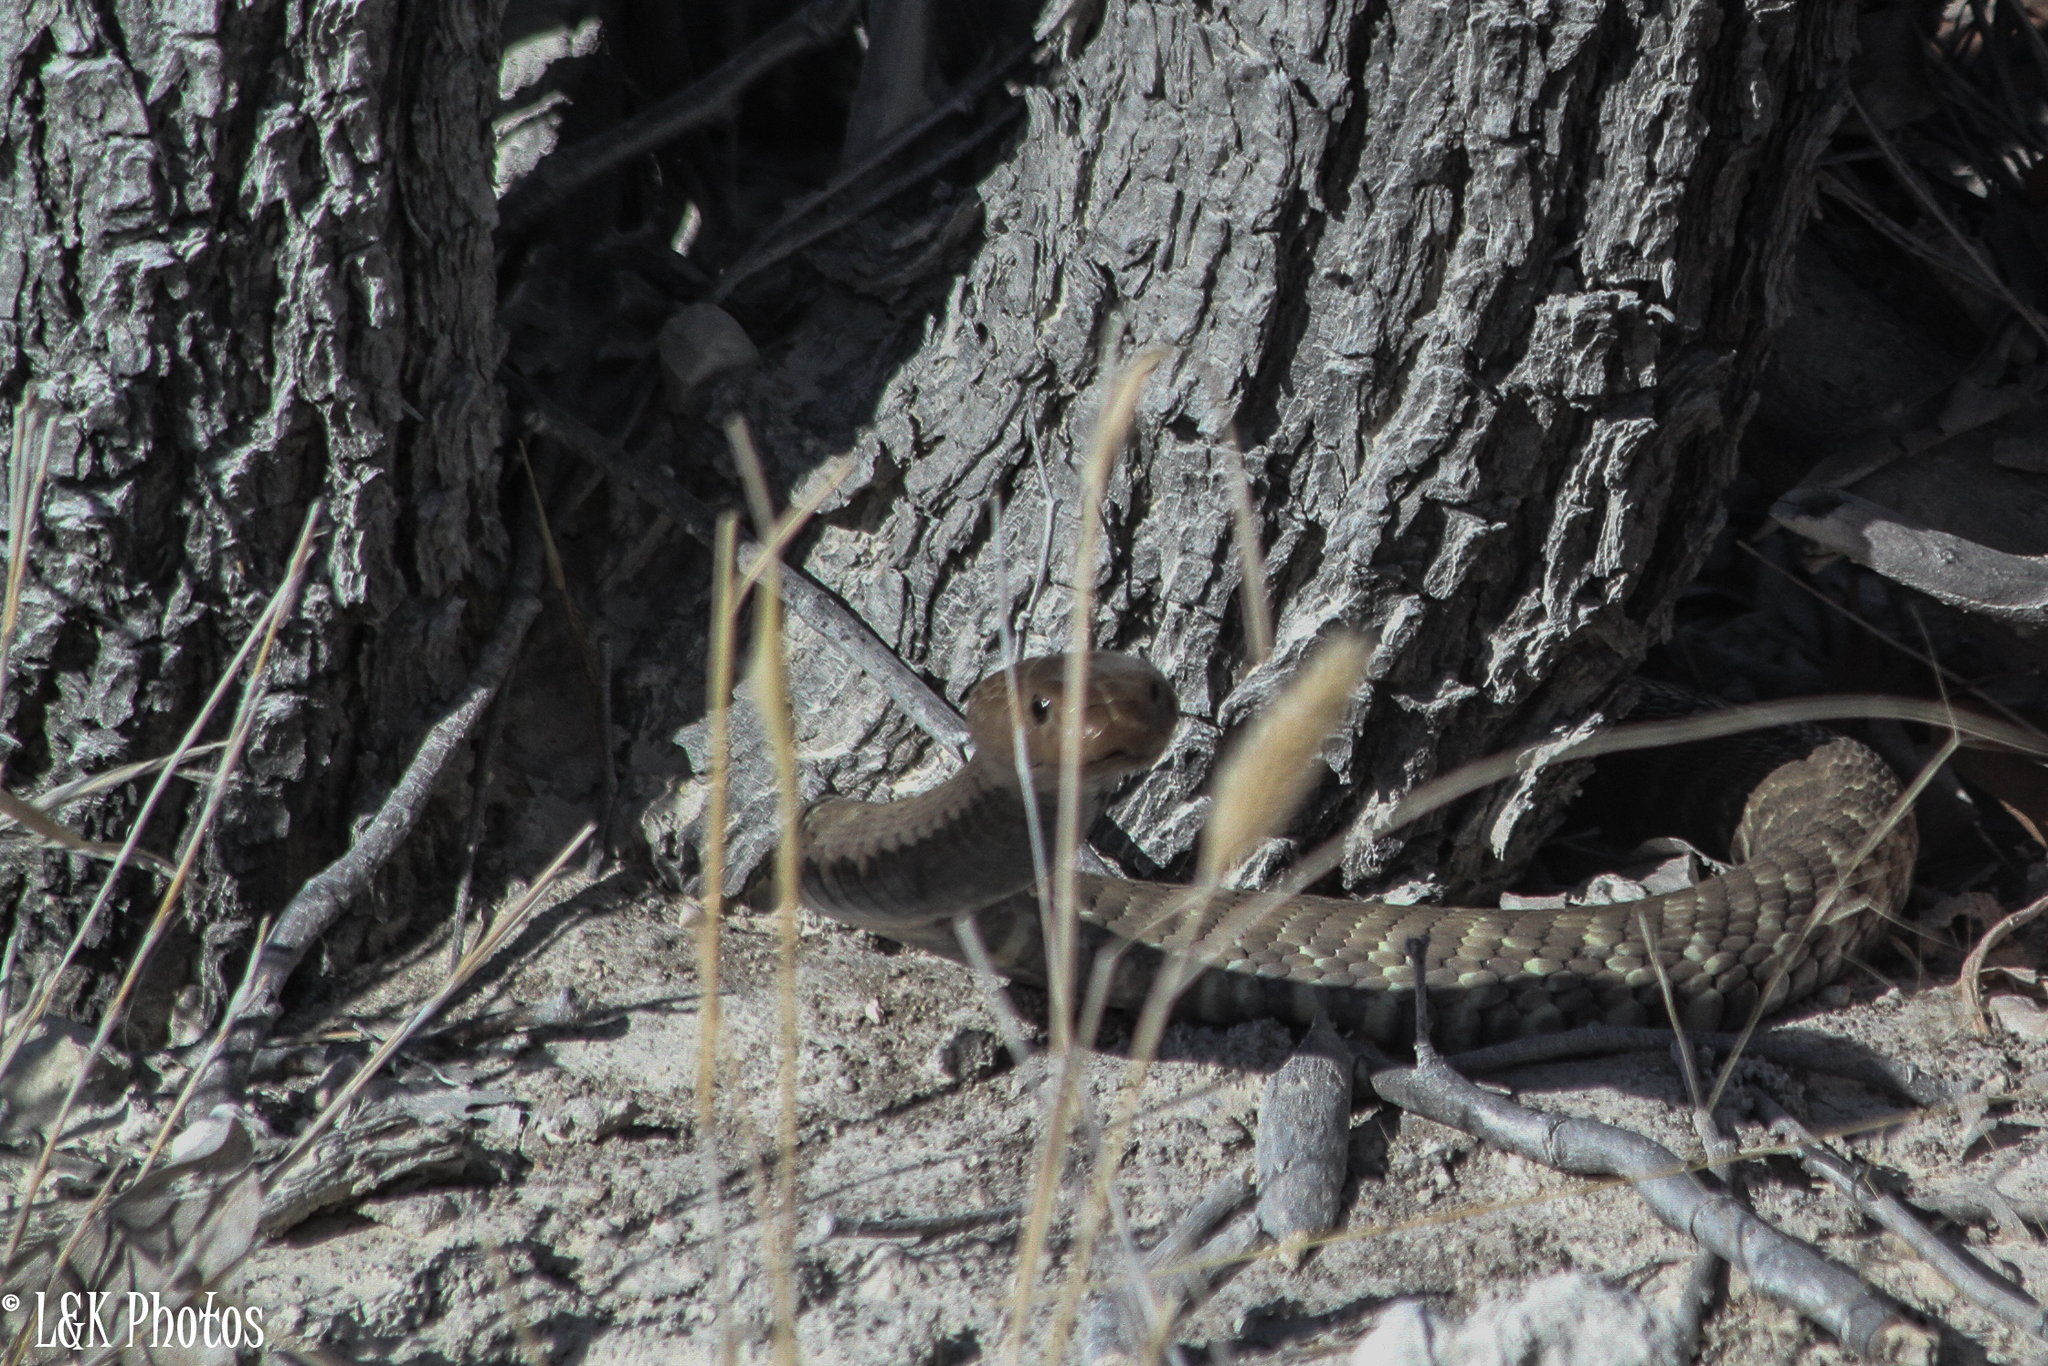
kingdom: Animalia
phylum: Chordata
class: Squamata
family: Elapidae
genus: Naja
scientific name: Naja nigricincta
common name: Black spitting cobra
